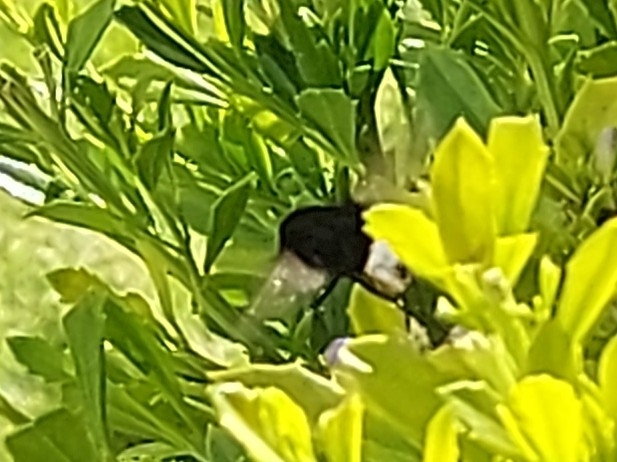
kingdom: Animalia
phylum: Arthropoda
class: Insecta
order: Diptera
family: Bombyliidae
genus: Bombomyia
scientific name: Bombomyia discoidea
